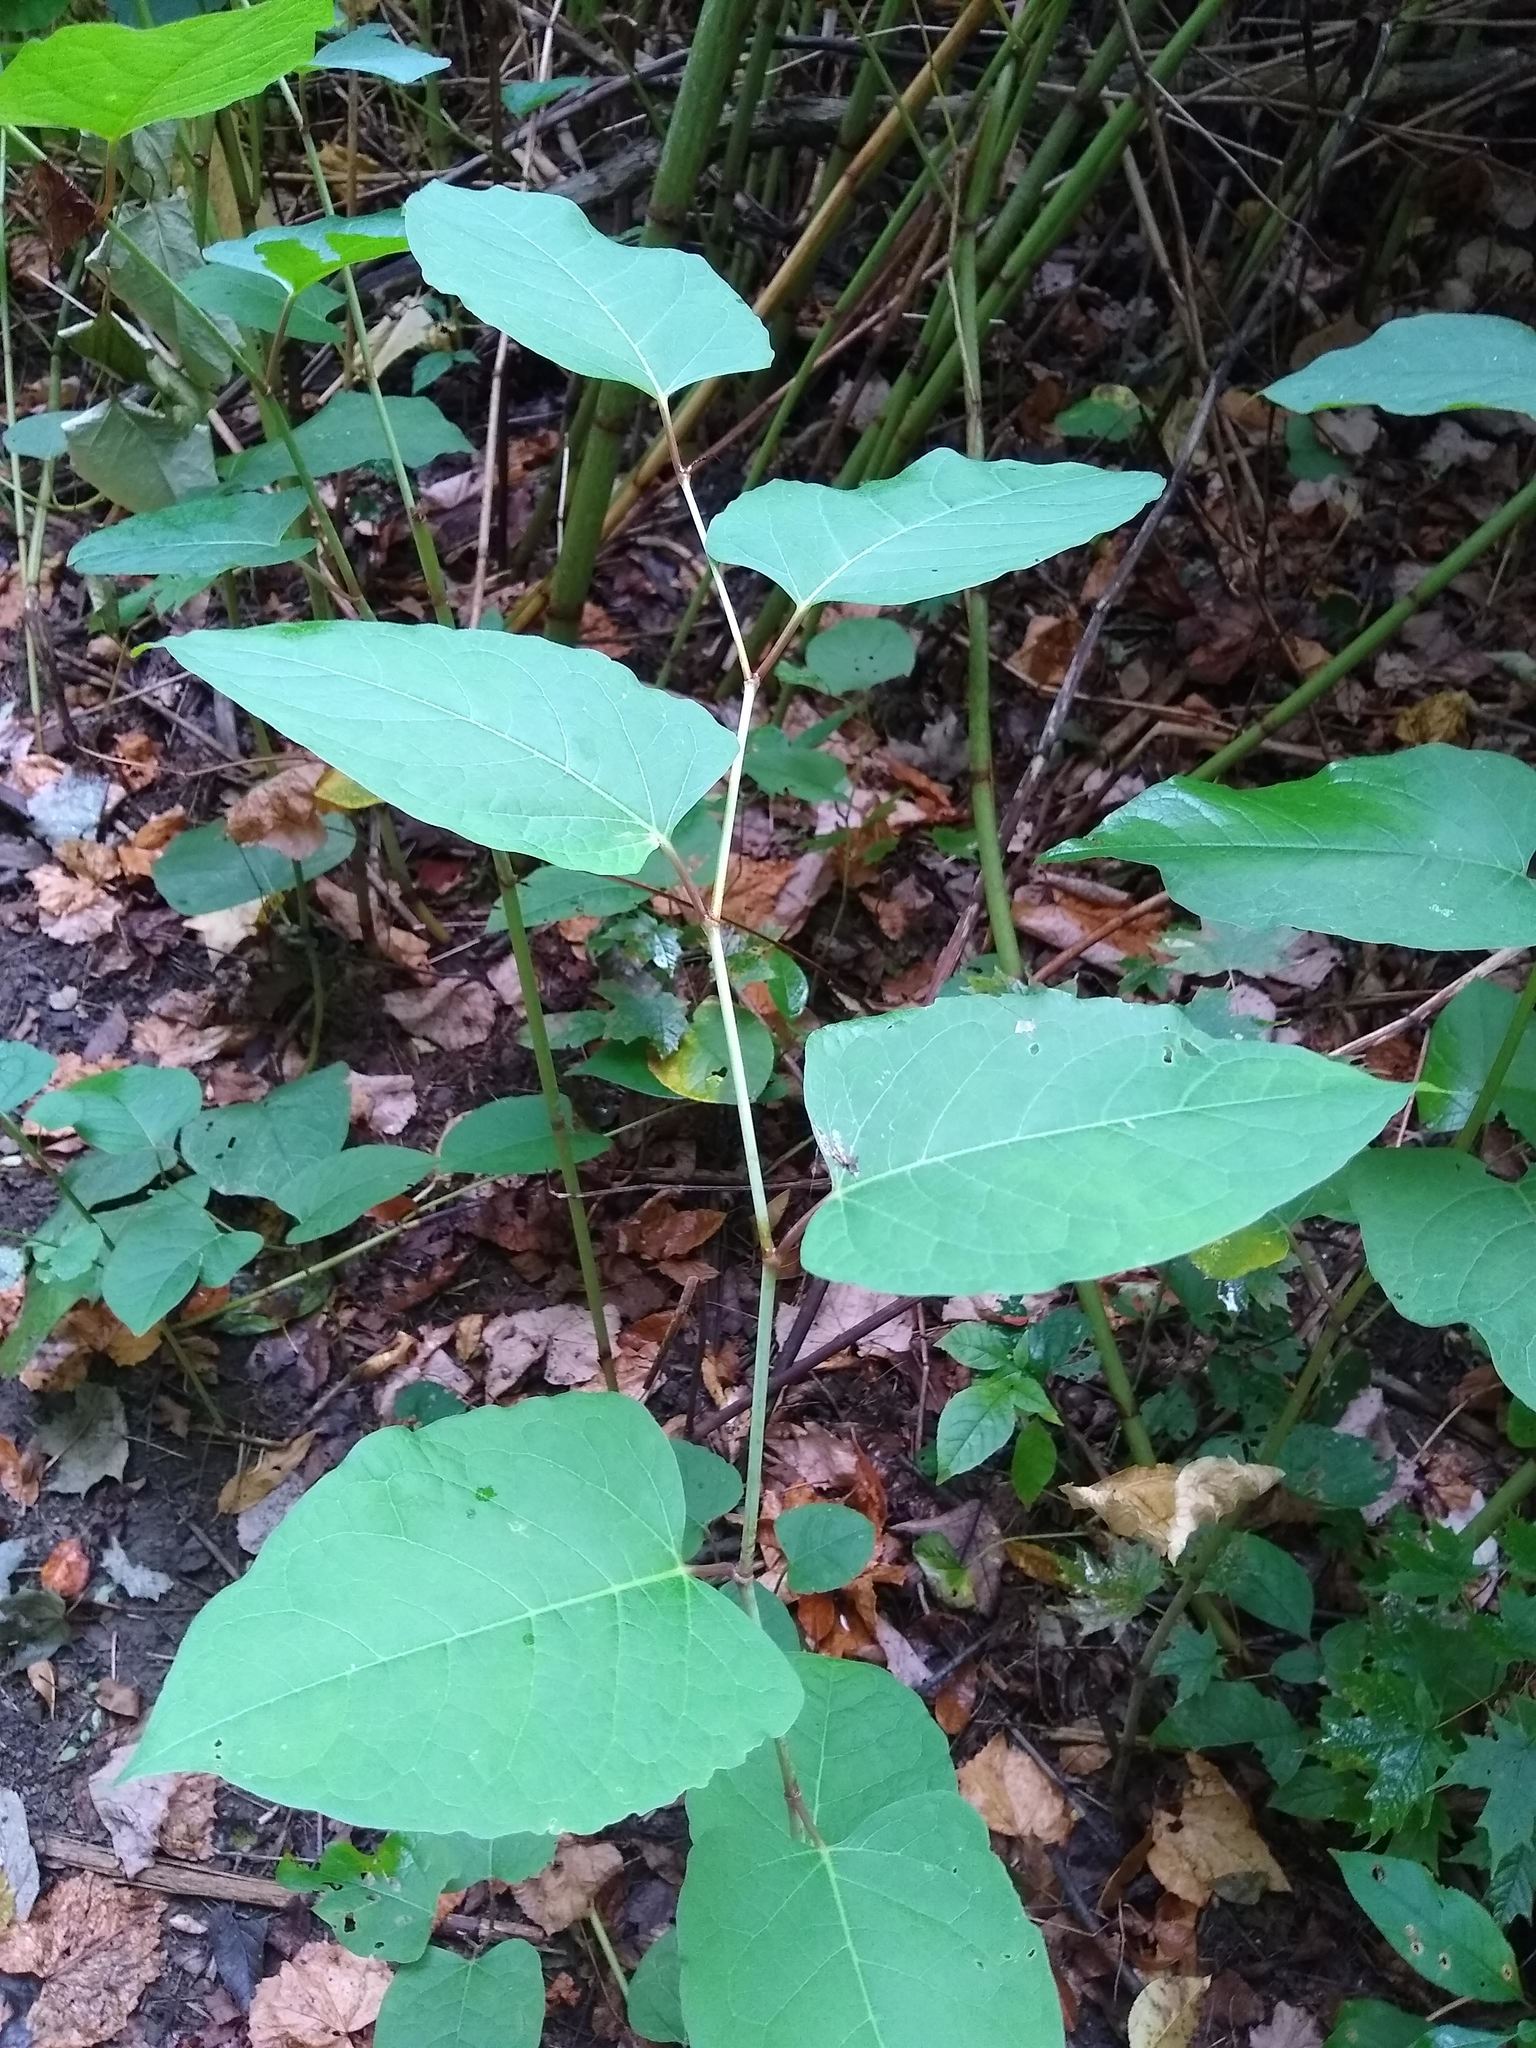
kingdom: Plantae
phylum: Tracheophyta
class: Magnoliopsida
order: Caryophyllales
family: Polygonaceae
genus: Reynoutria
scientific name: Reynoutria japonica
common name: Japanese knotweed
